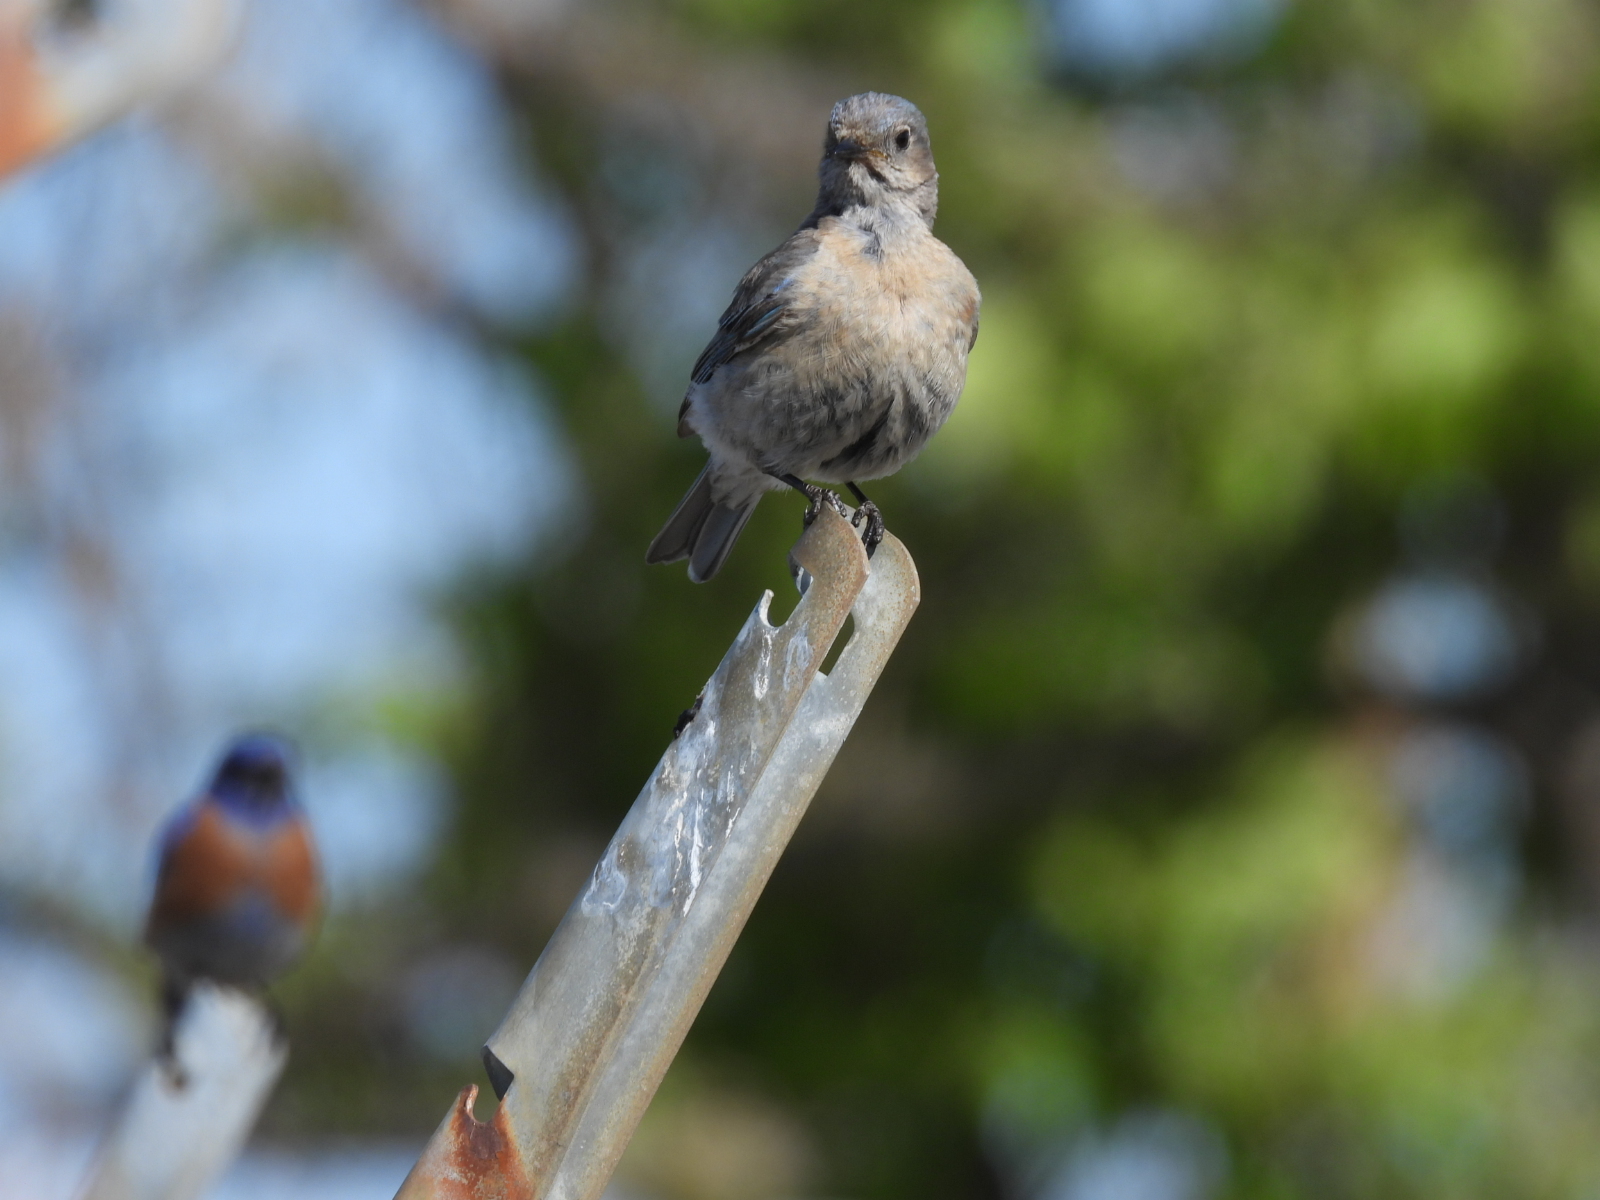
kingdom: Animalia
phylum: Chordata
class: Aves
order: Passeriformes
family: Turdidae
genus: Sialia
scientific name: Sialia mexicana
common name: Western bluebird
